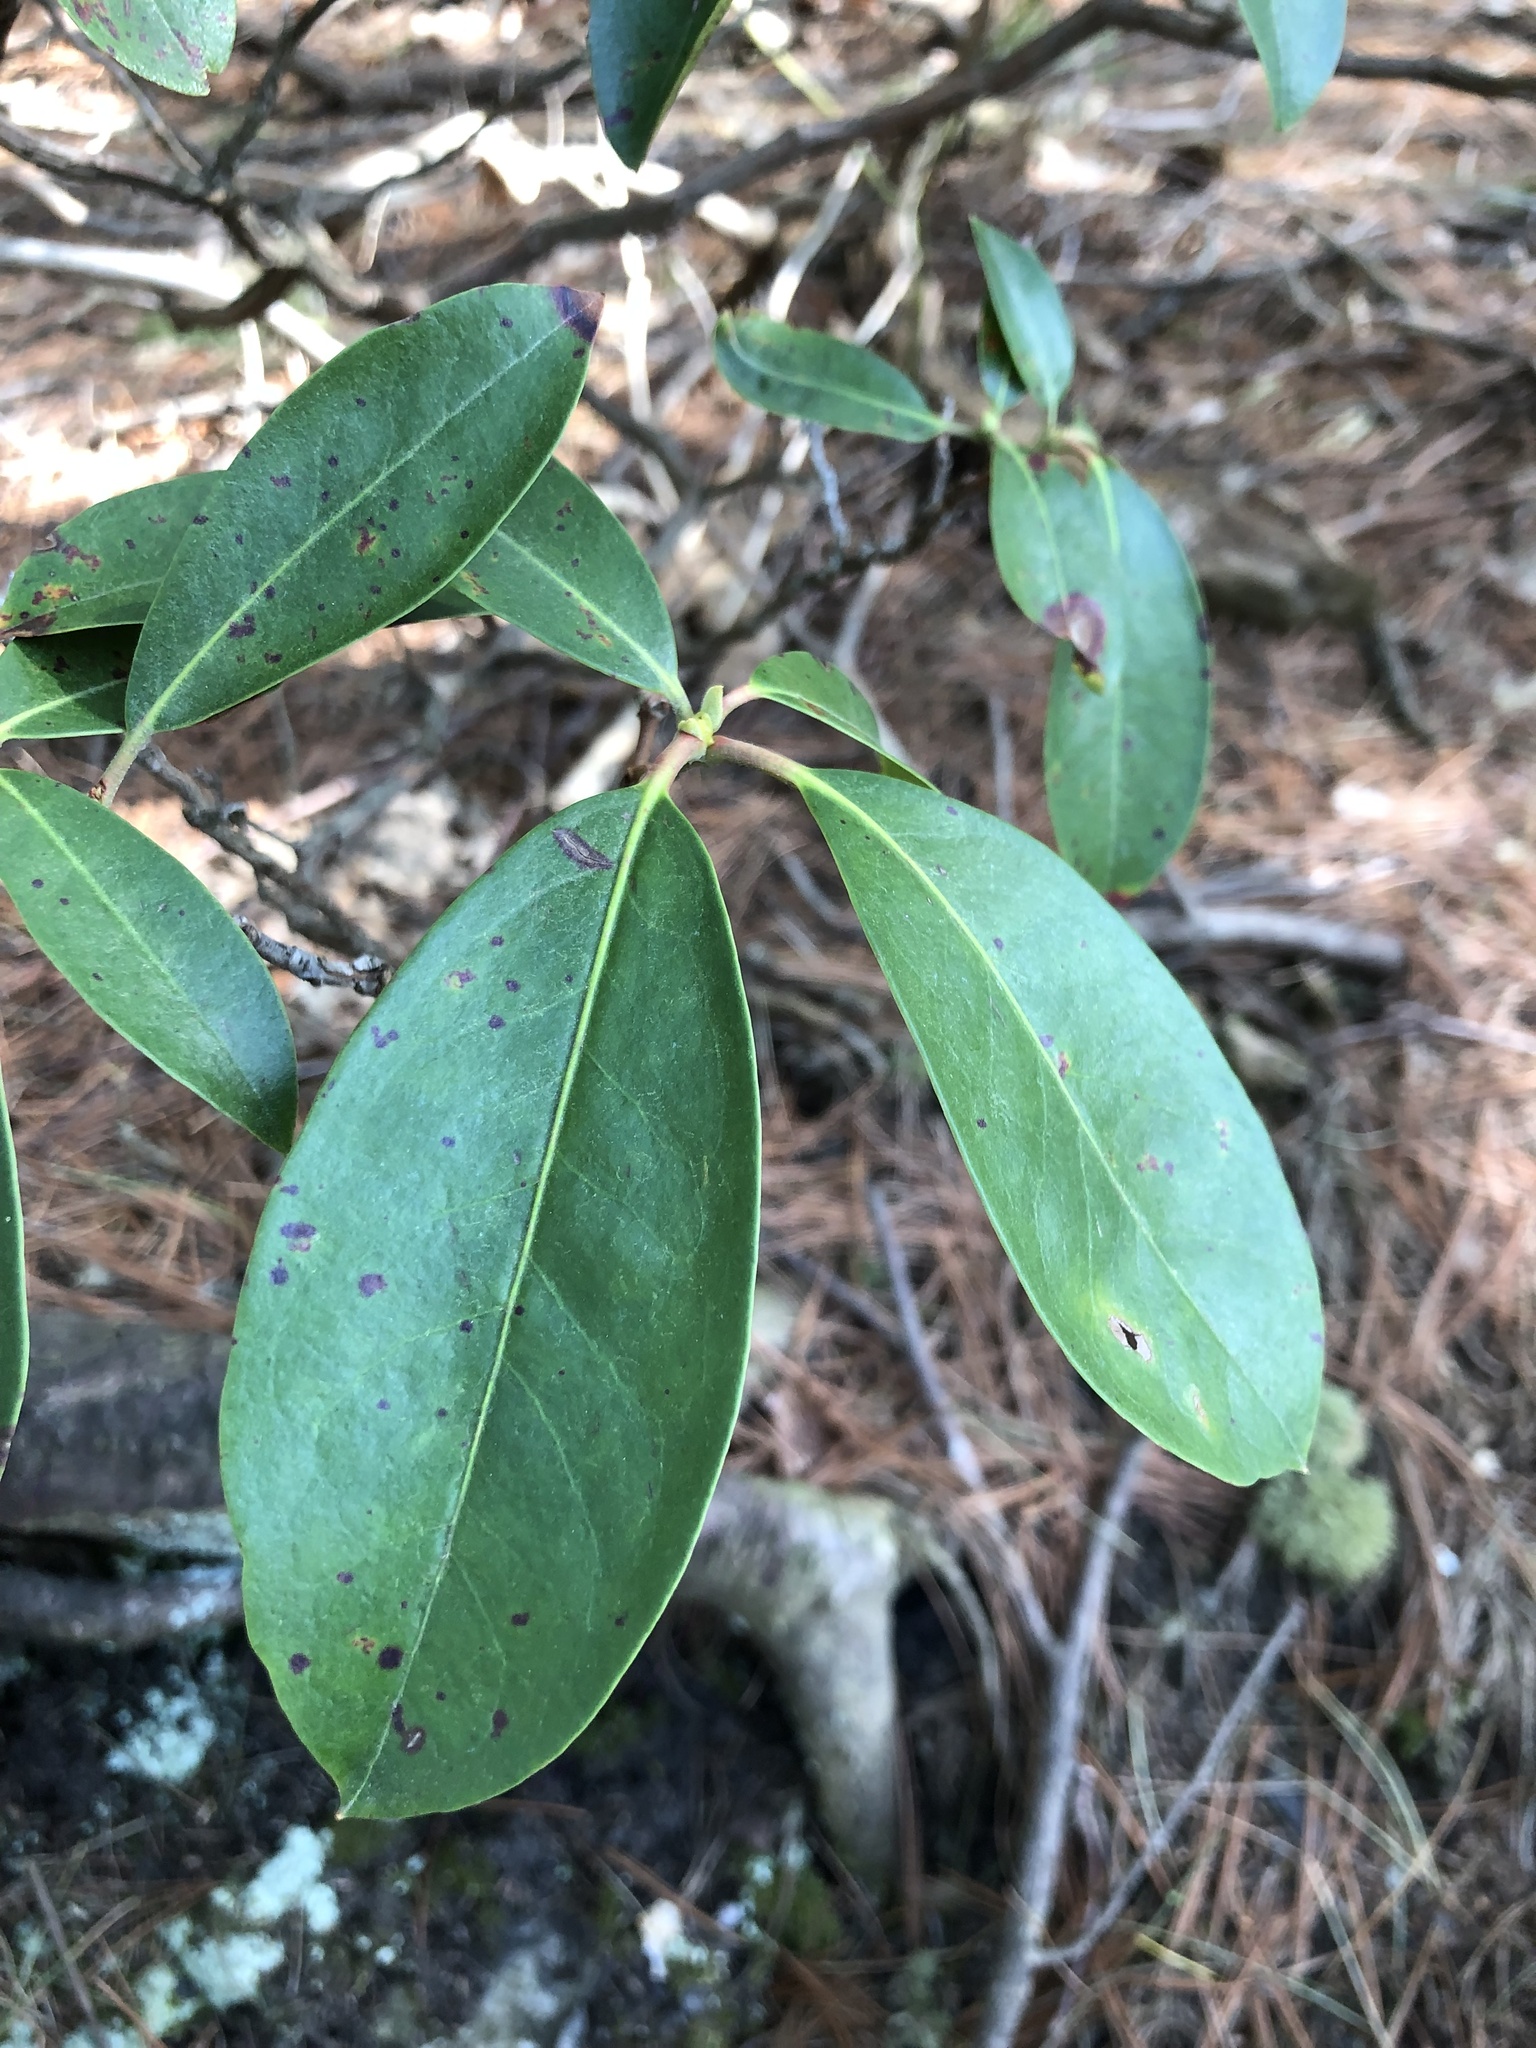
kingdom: Plantae
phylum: Tracheophyta
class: Magnoliopsida
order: Ericales
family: Ericaceae
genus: Kalmia
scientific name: Kalmia latifolia
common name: Mountain-laurel
